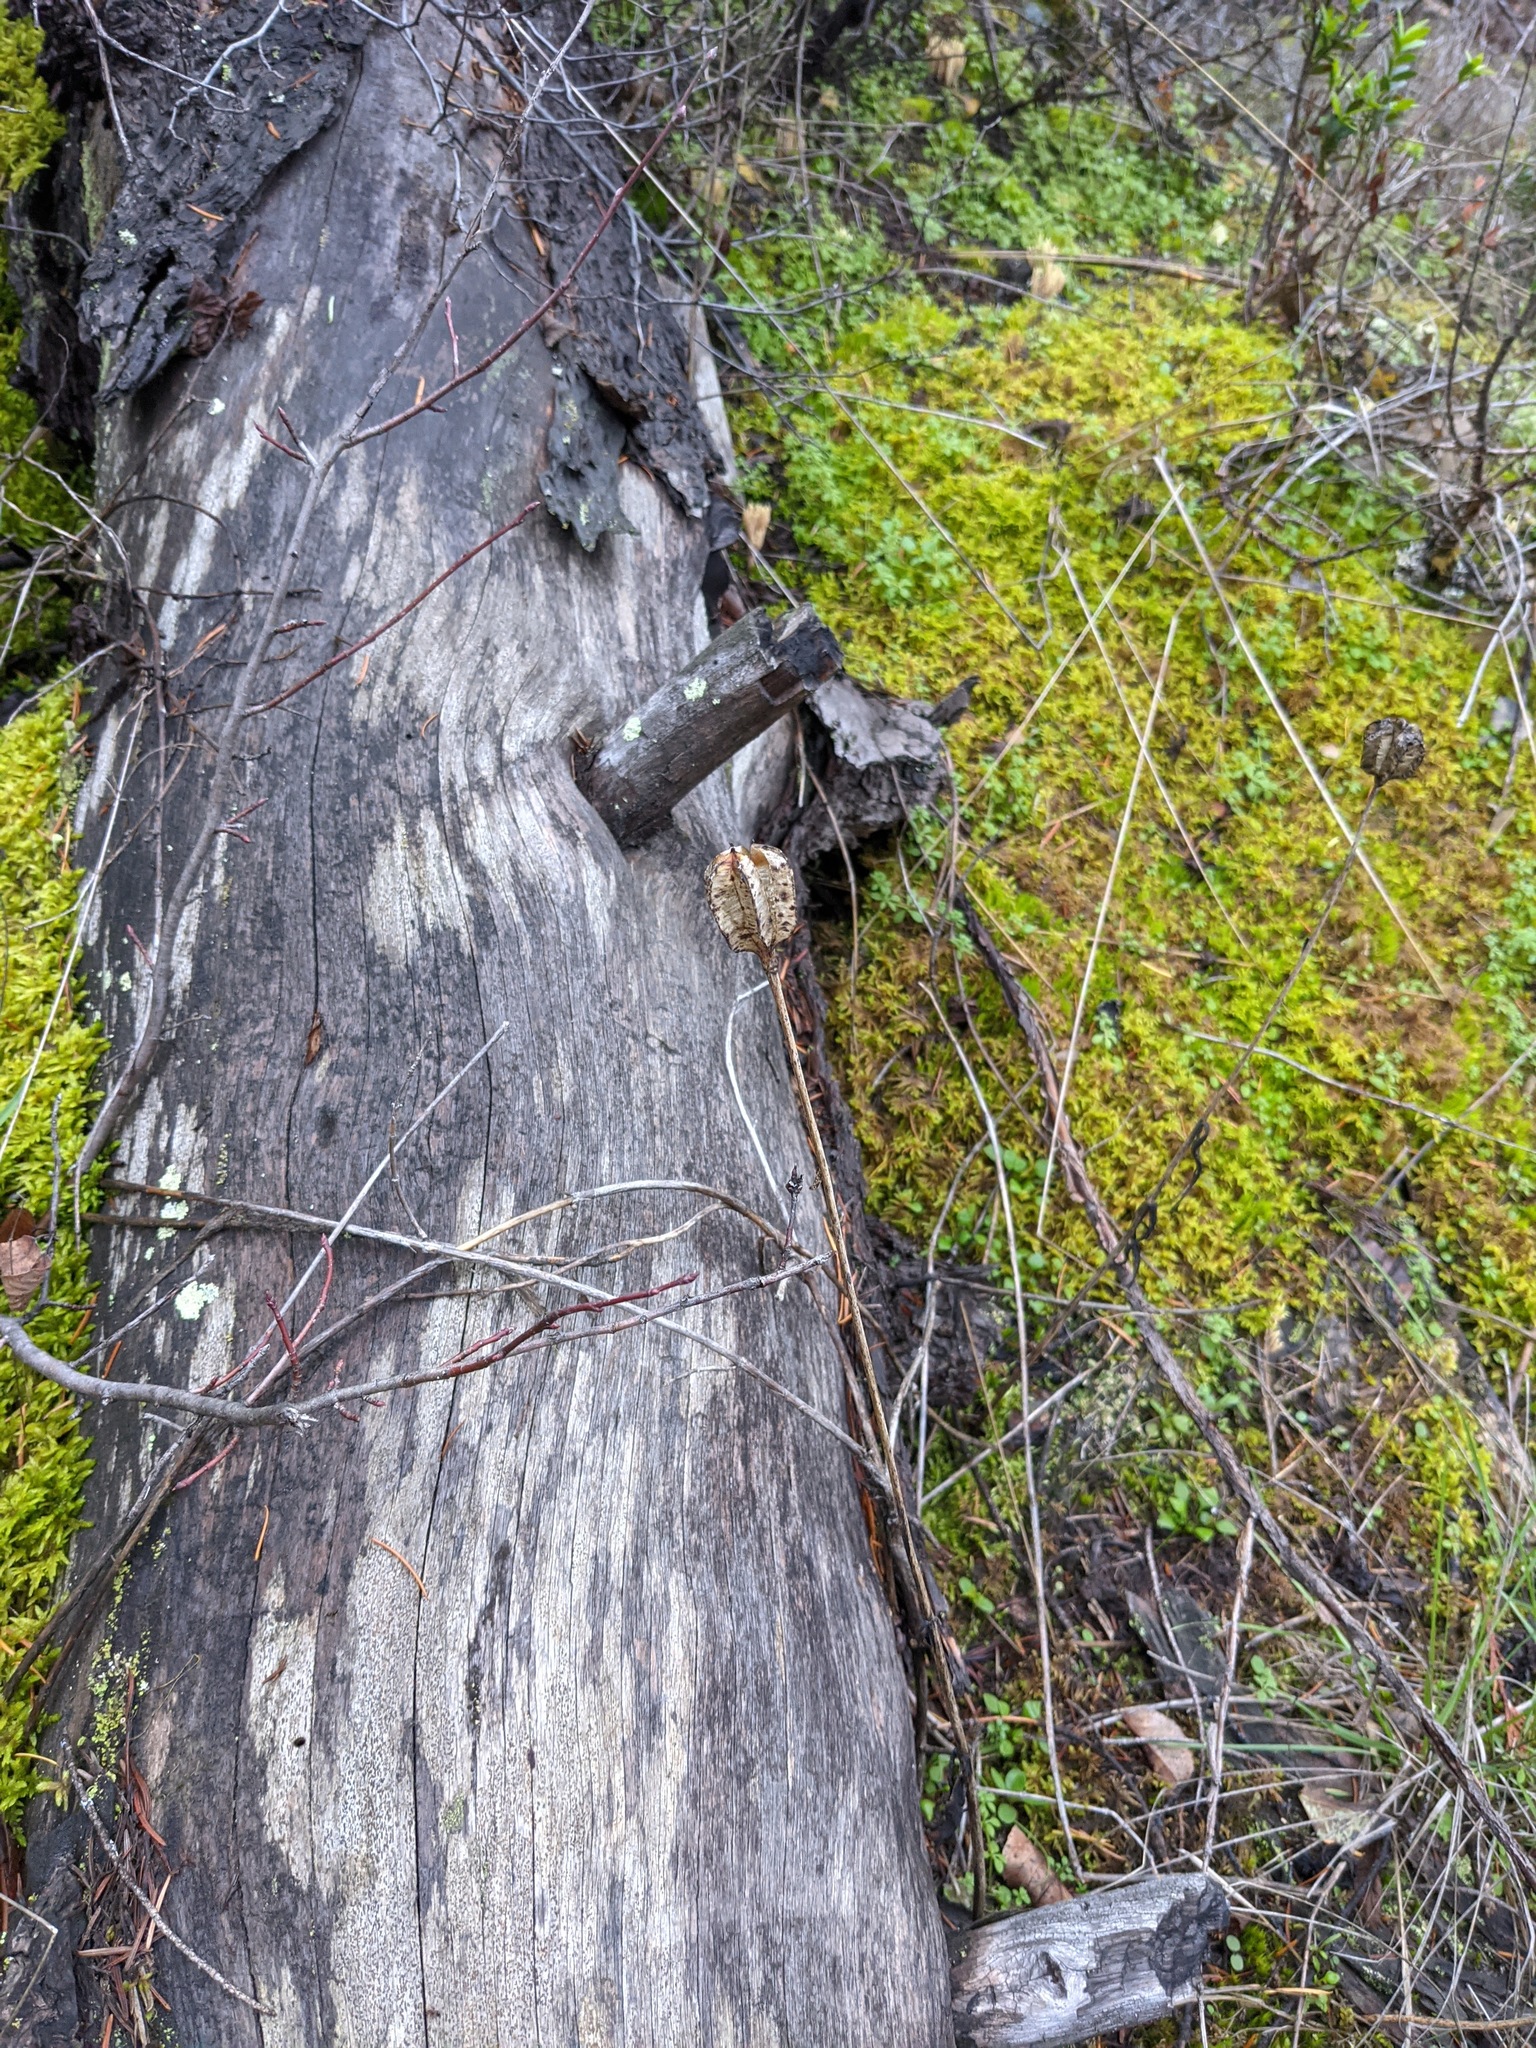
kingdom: Plantae
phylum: Tracheophyta
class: Liliopsida
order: Liliales
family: Liliaceae
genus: Fritillaria
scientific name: Fritillaria affinis
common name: Ojai fritillary
